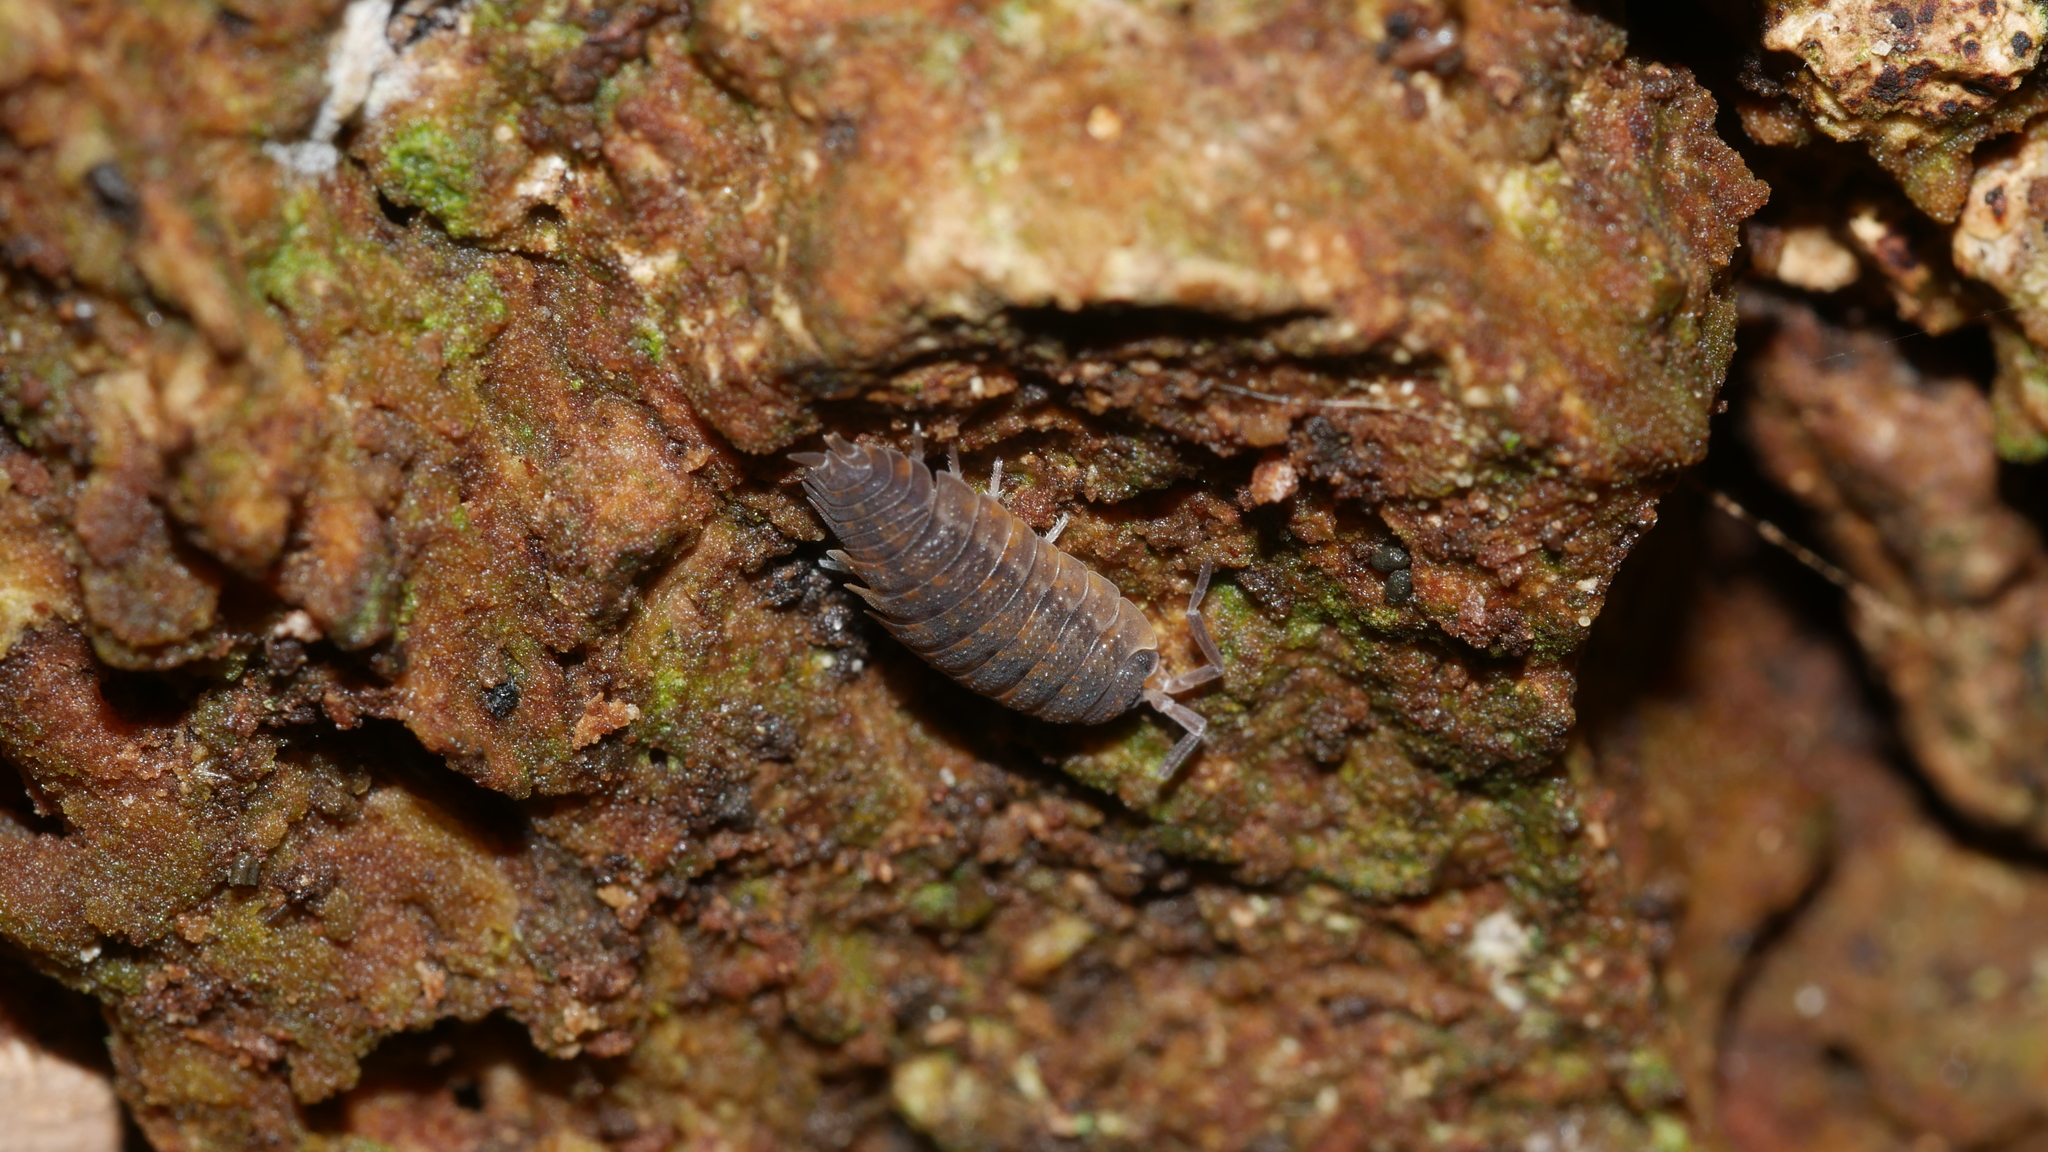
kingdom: Animalia
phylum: Arthropoda
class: Malacostraca
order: Isopoda
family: Porcellionidae
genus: Porcellio
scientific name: Porcellio scaber
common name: Common rough woodlouse
